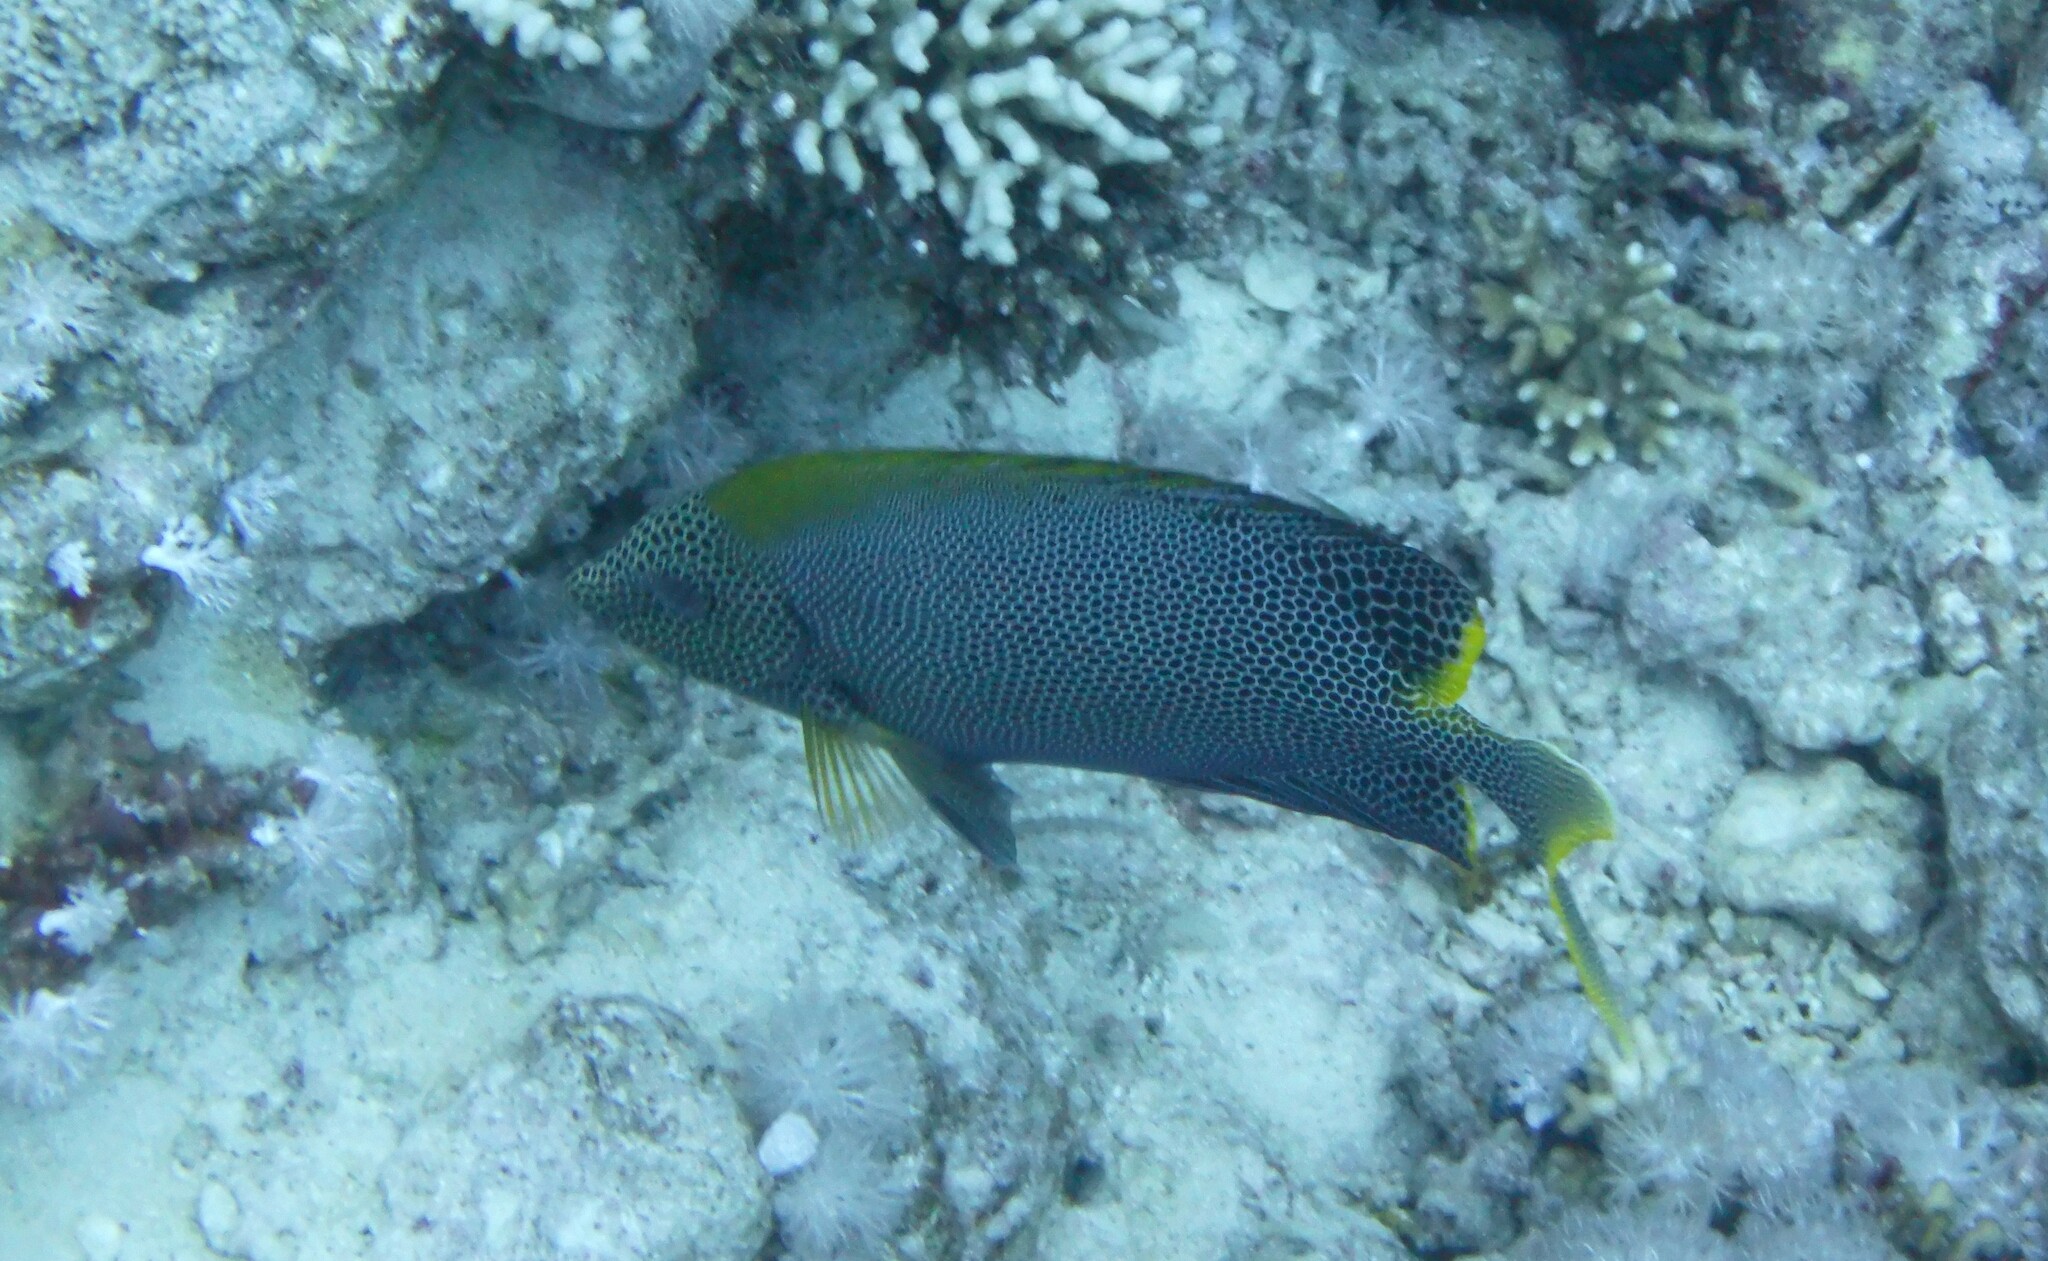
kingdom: Animalia
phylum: Chordata
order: Perciformes
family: Siganidae
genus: Siganus
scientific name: Siganus stellatus
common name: Brown-spotted spinefoot
